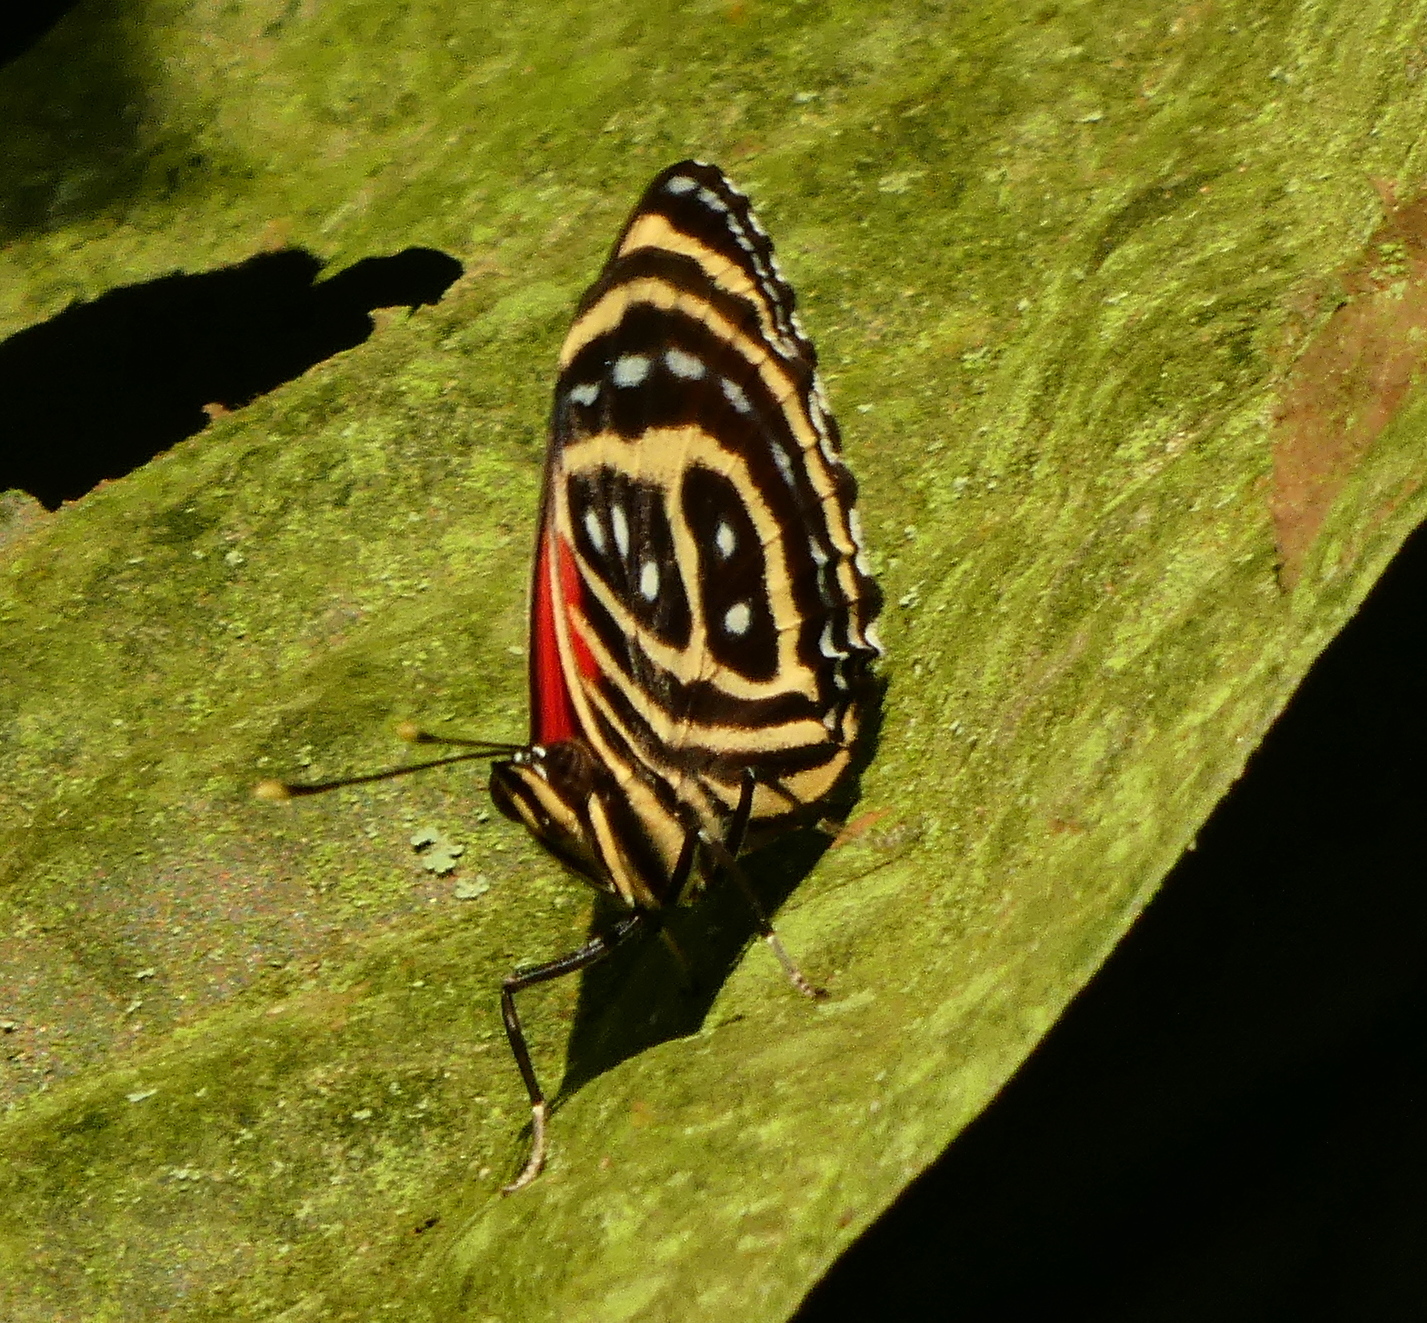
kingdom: Animalia
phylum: Arthropoda
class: Insecta
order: Lepidoptera
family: Nymphalidae
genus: Catagramma
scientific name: Catagramma pygas
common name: Godart's numberwing
